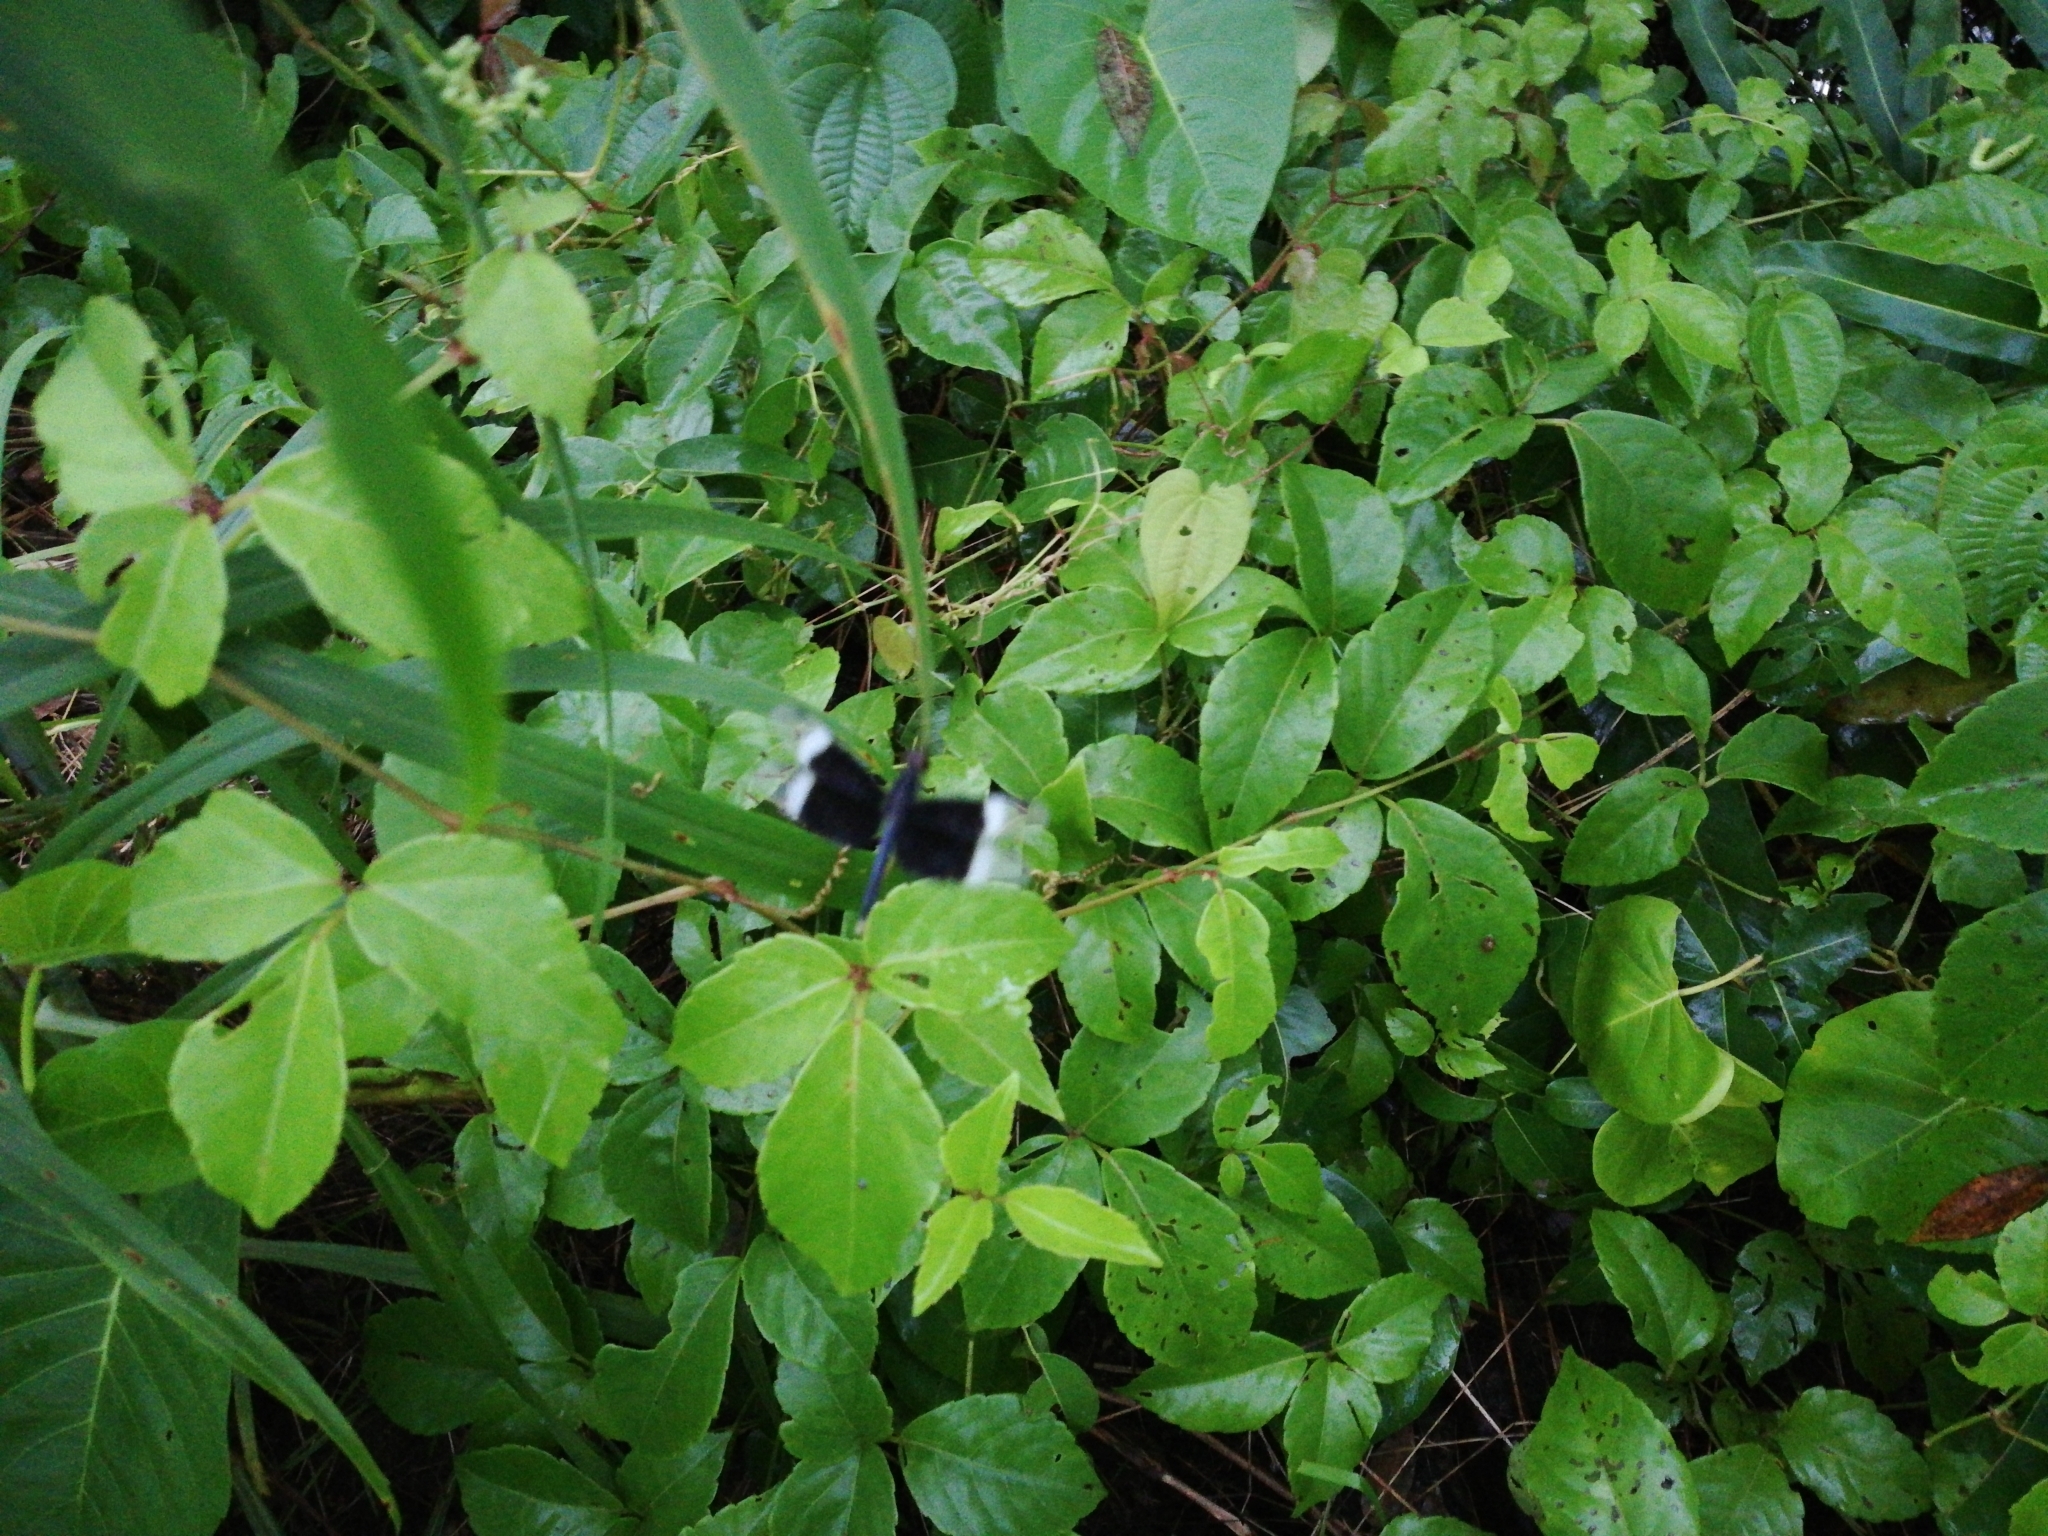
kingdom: Animalia
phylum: Arthropoda
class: Insecta
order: Odonata
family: Libellulidae
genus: Neurothemis
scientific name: Neurothemis tullia
